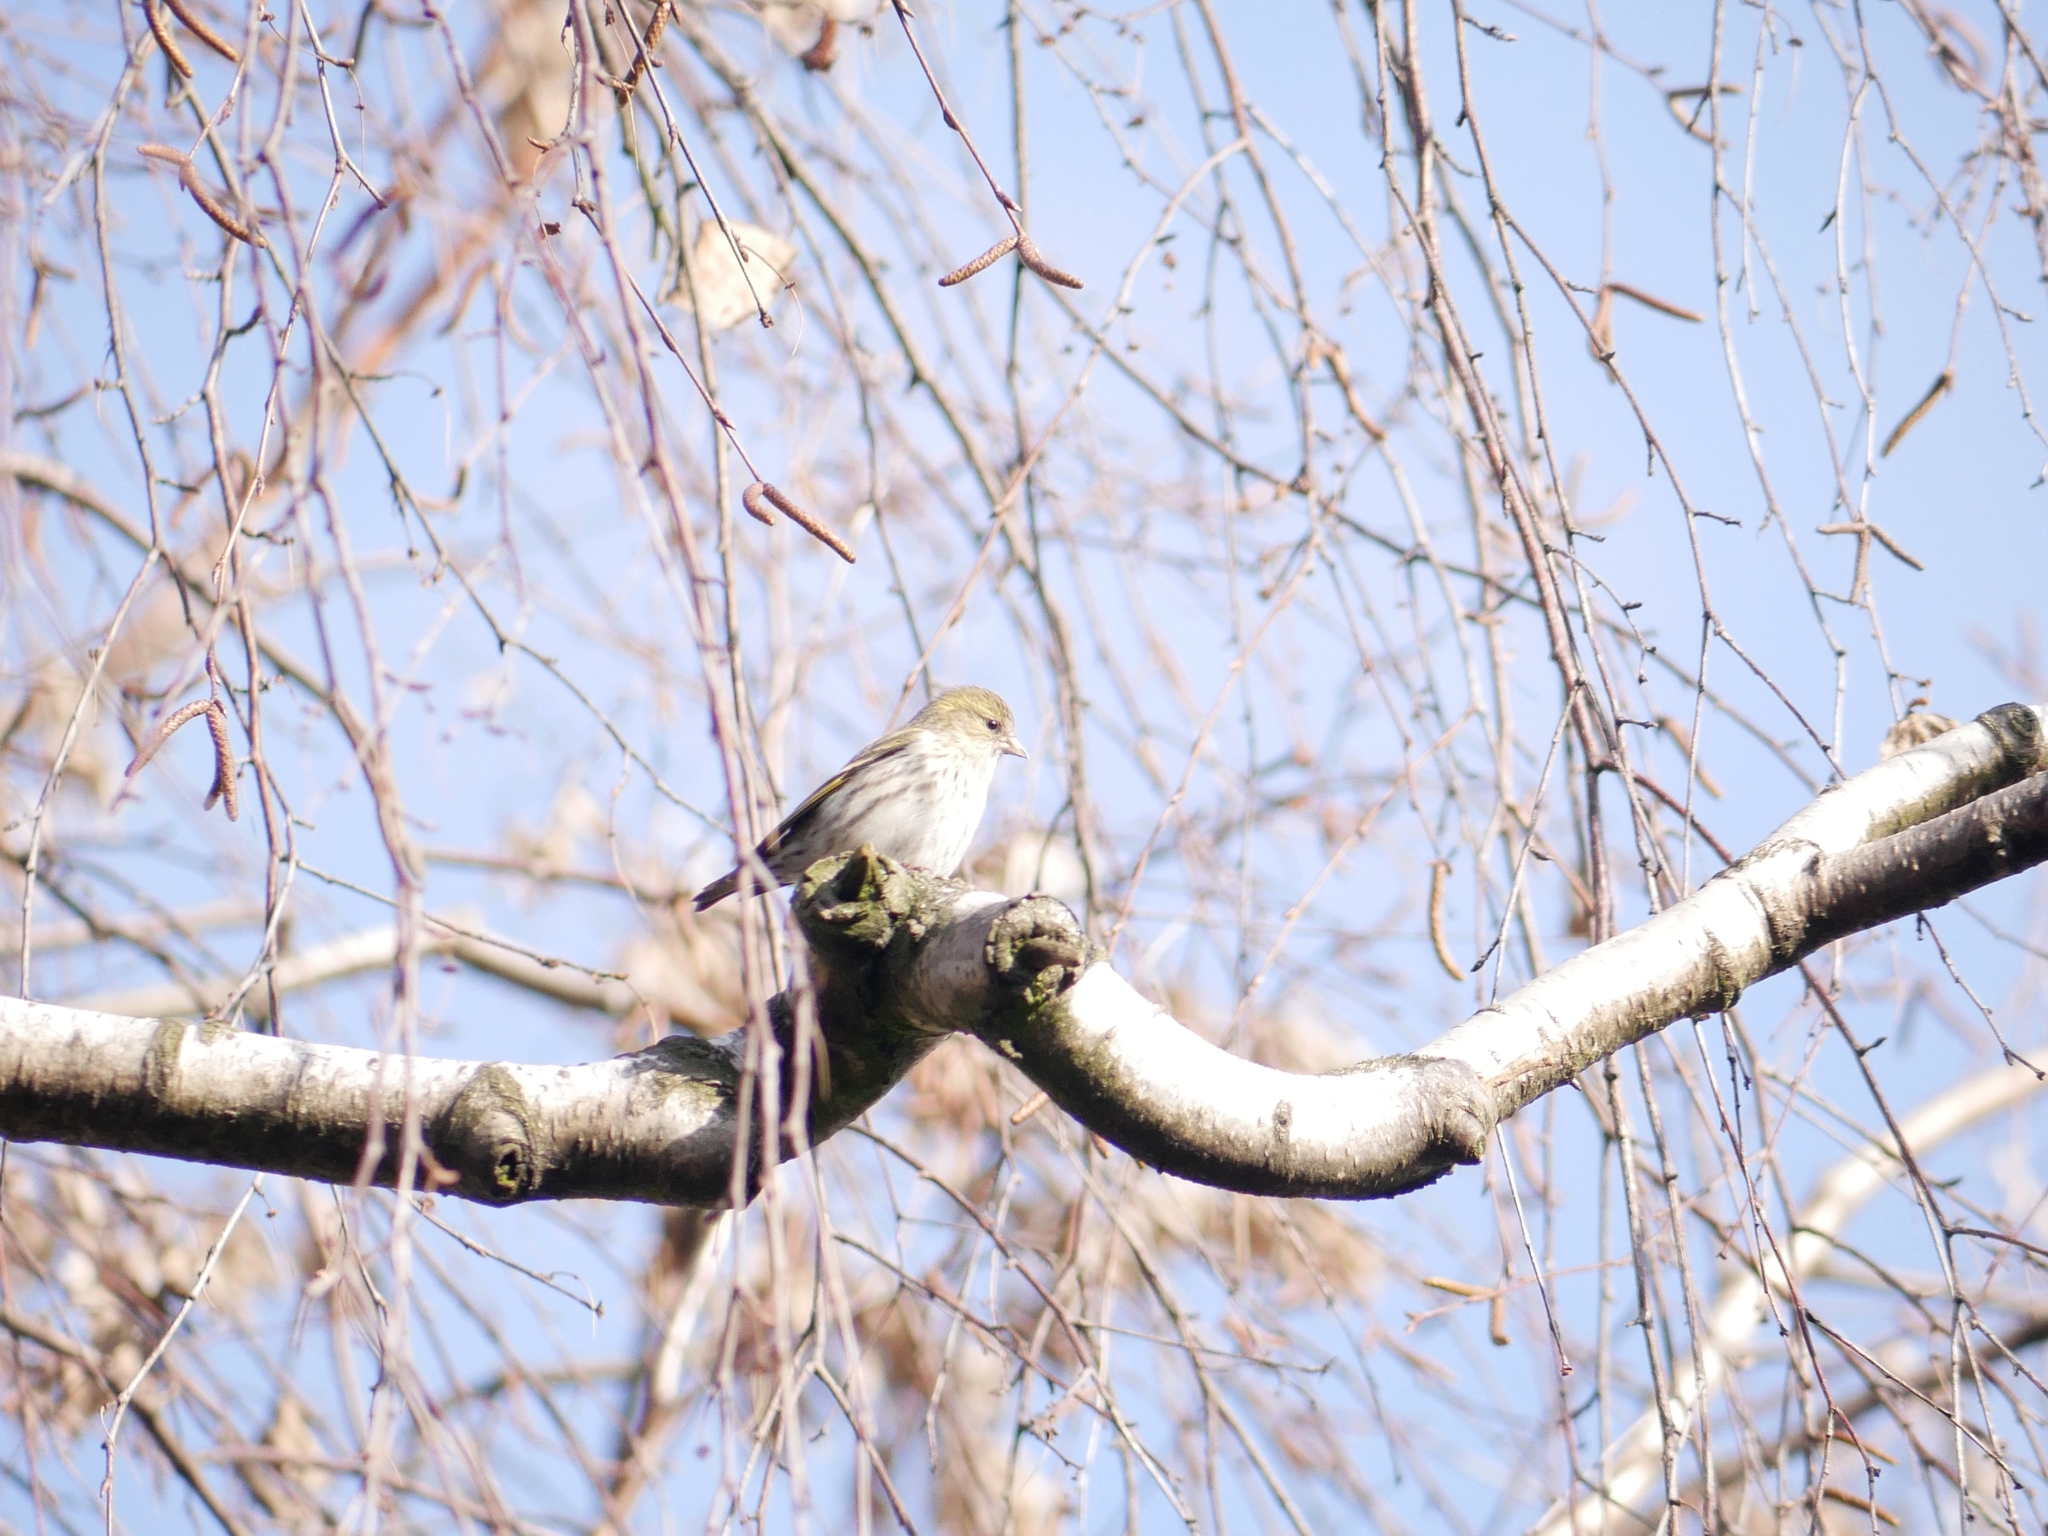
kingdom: Animalia
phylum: Chordata
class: Aves
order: Passeriformes
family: Fringillidae
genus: Spinus
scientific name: Spinus spinus
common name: Eurasian siskin
